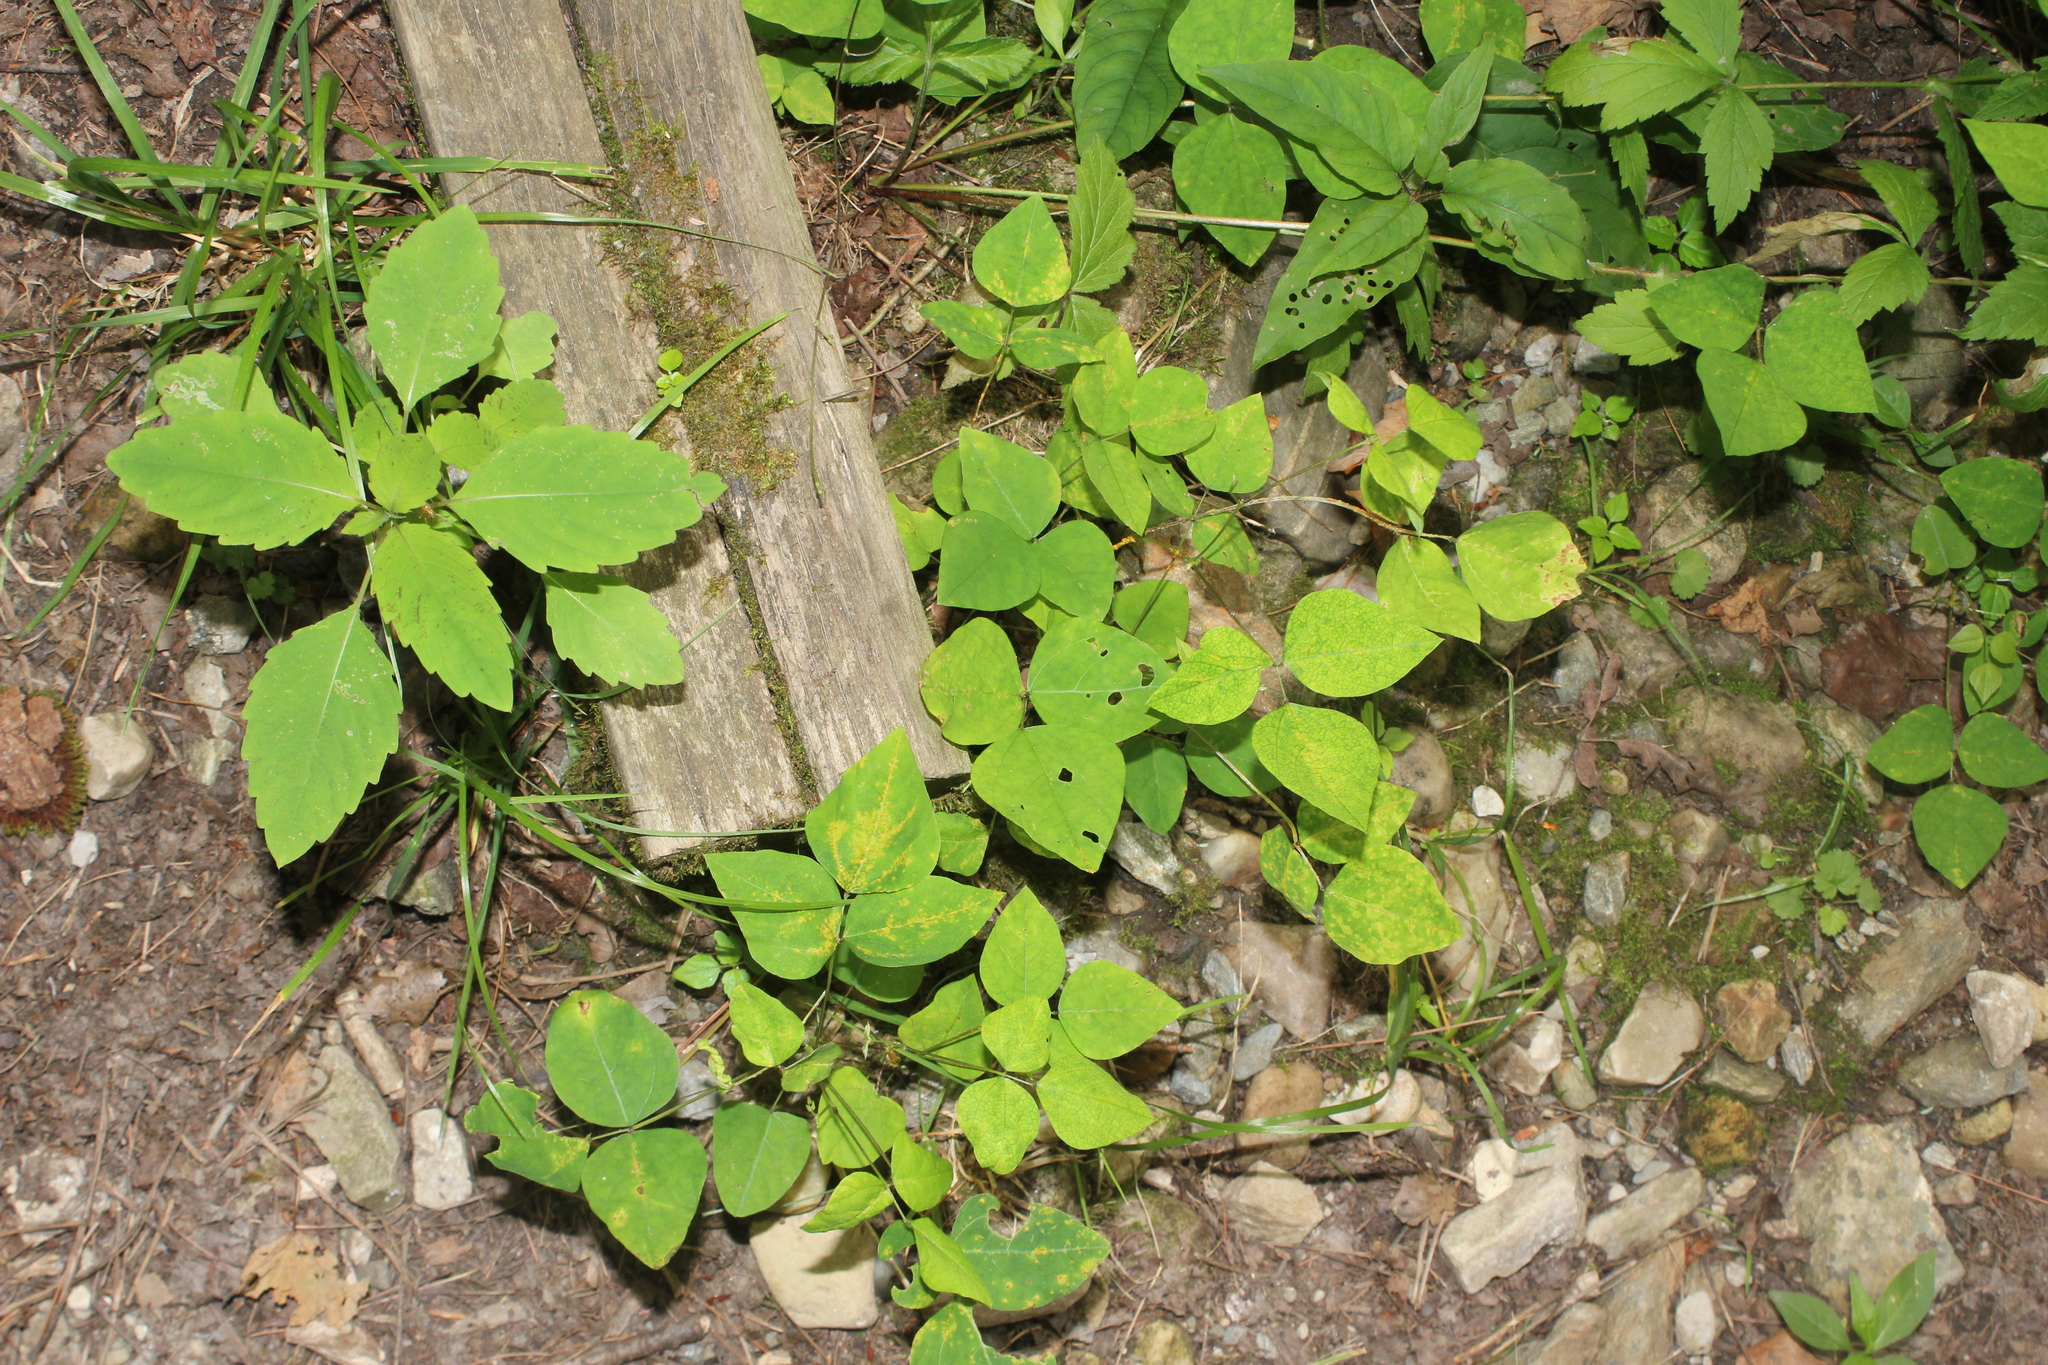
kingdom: Plantae
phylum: Tracheophyta
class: Magnoliopsida
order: Fabales
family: Fabaceae
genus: Amphicarpaea
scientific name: Amphicarpaea bracteata
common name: American hog peanut
